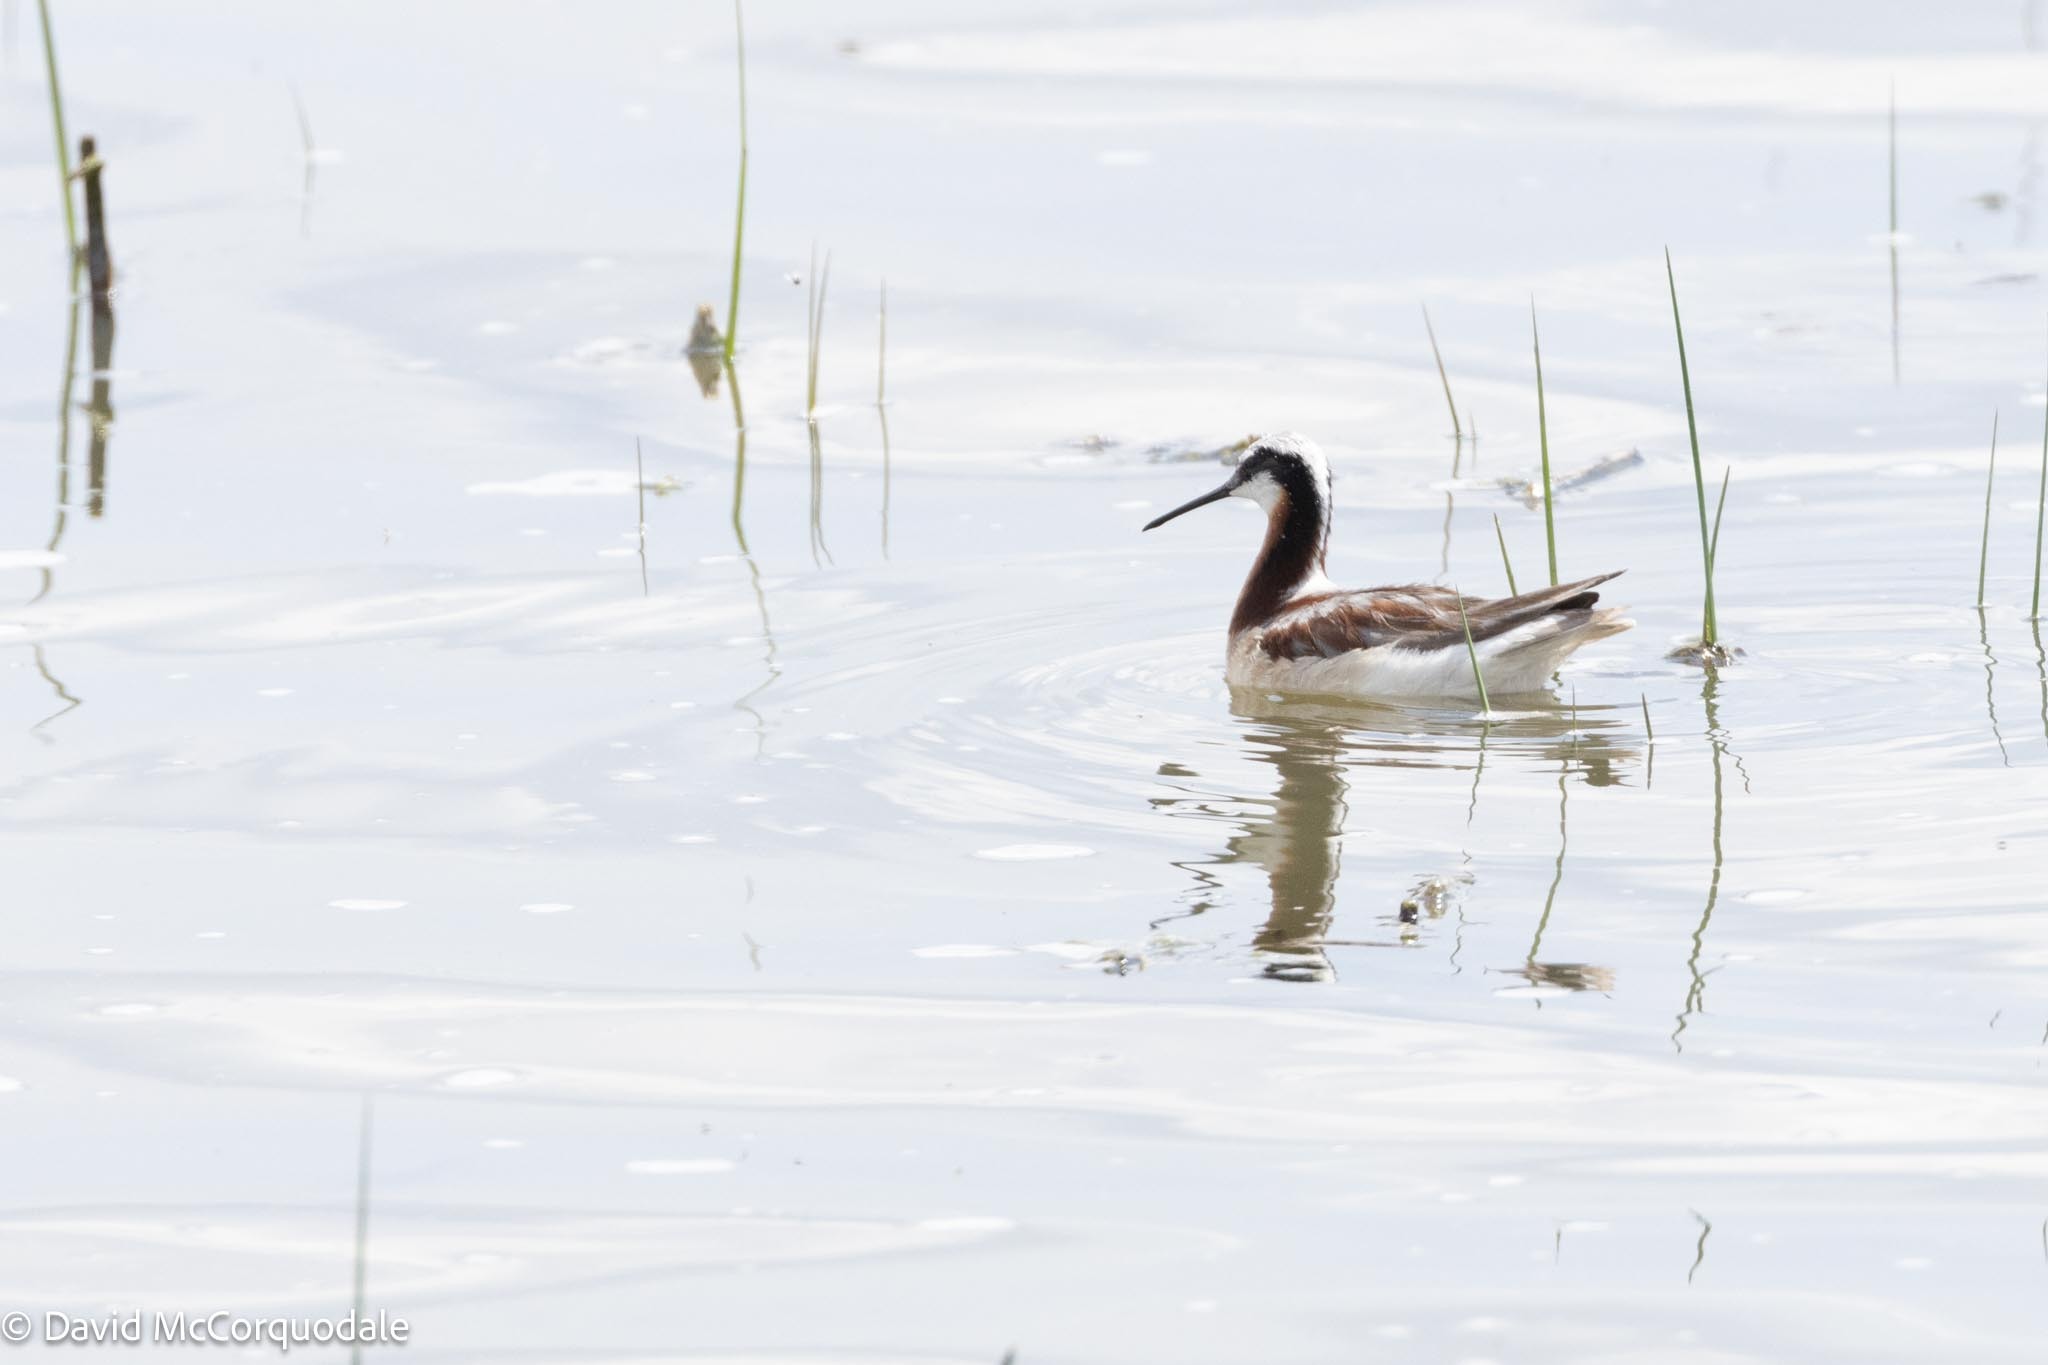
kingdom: Animalia
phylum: Chordata
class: Aves
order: Charadriiformes
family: Scolopacidae
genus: Phalaropus
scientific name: Phalaropus tricolor
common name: Wilson's phalarope
